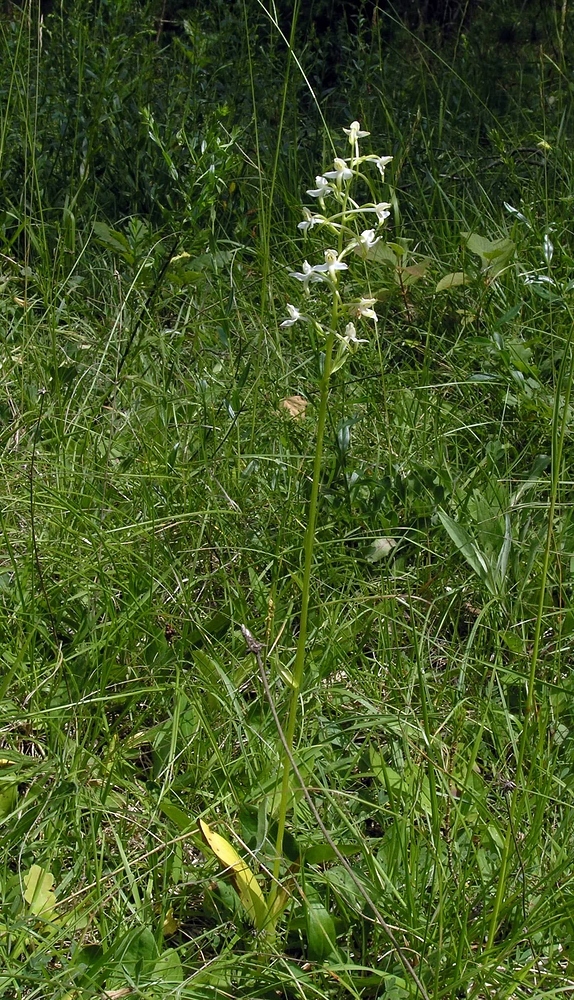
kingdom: Plantae
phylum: Tracheophyta
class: Liliopsida
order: Asparagales
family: Orchidaceae
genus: Platanthera
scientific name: Platanthera bifolia
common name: Lesser butterfly-orchid
